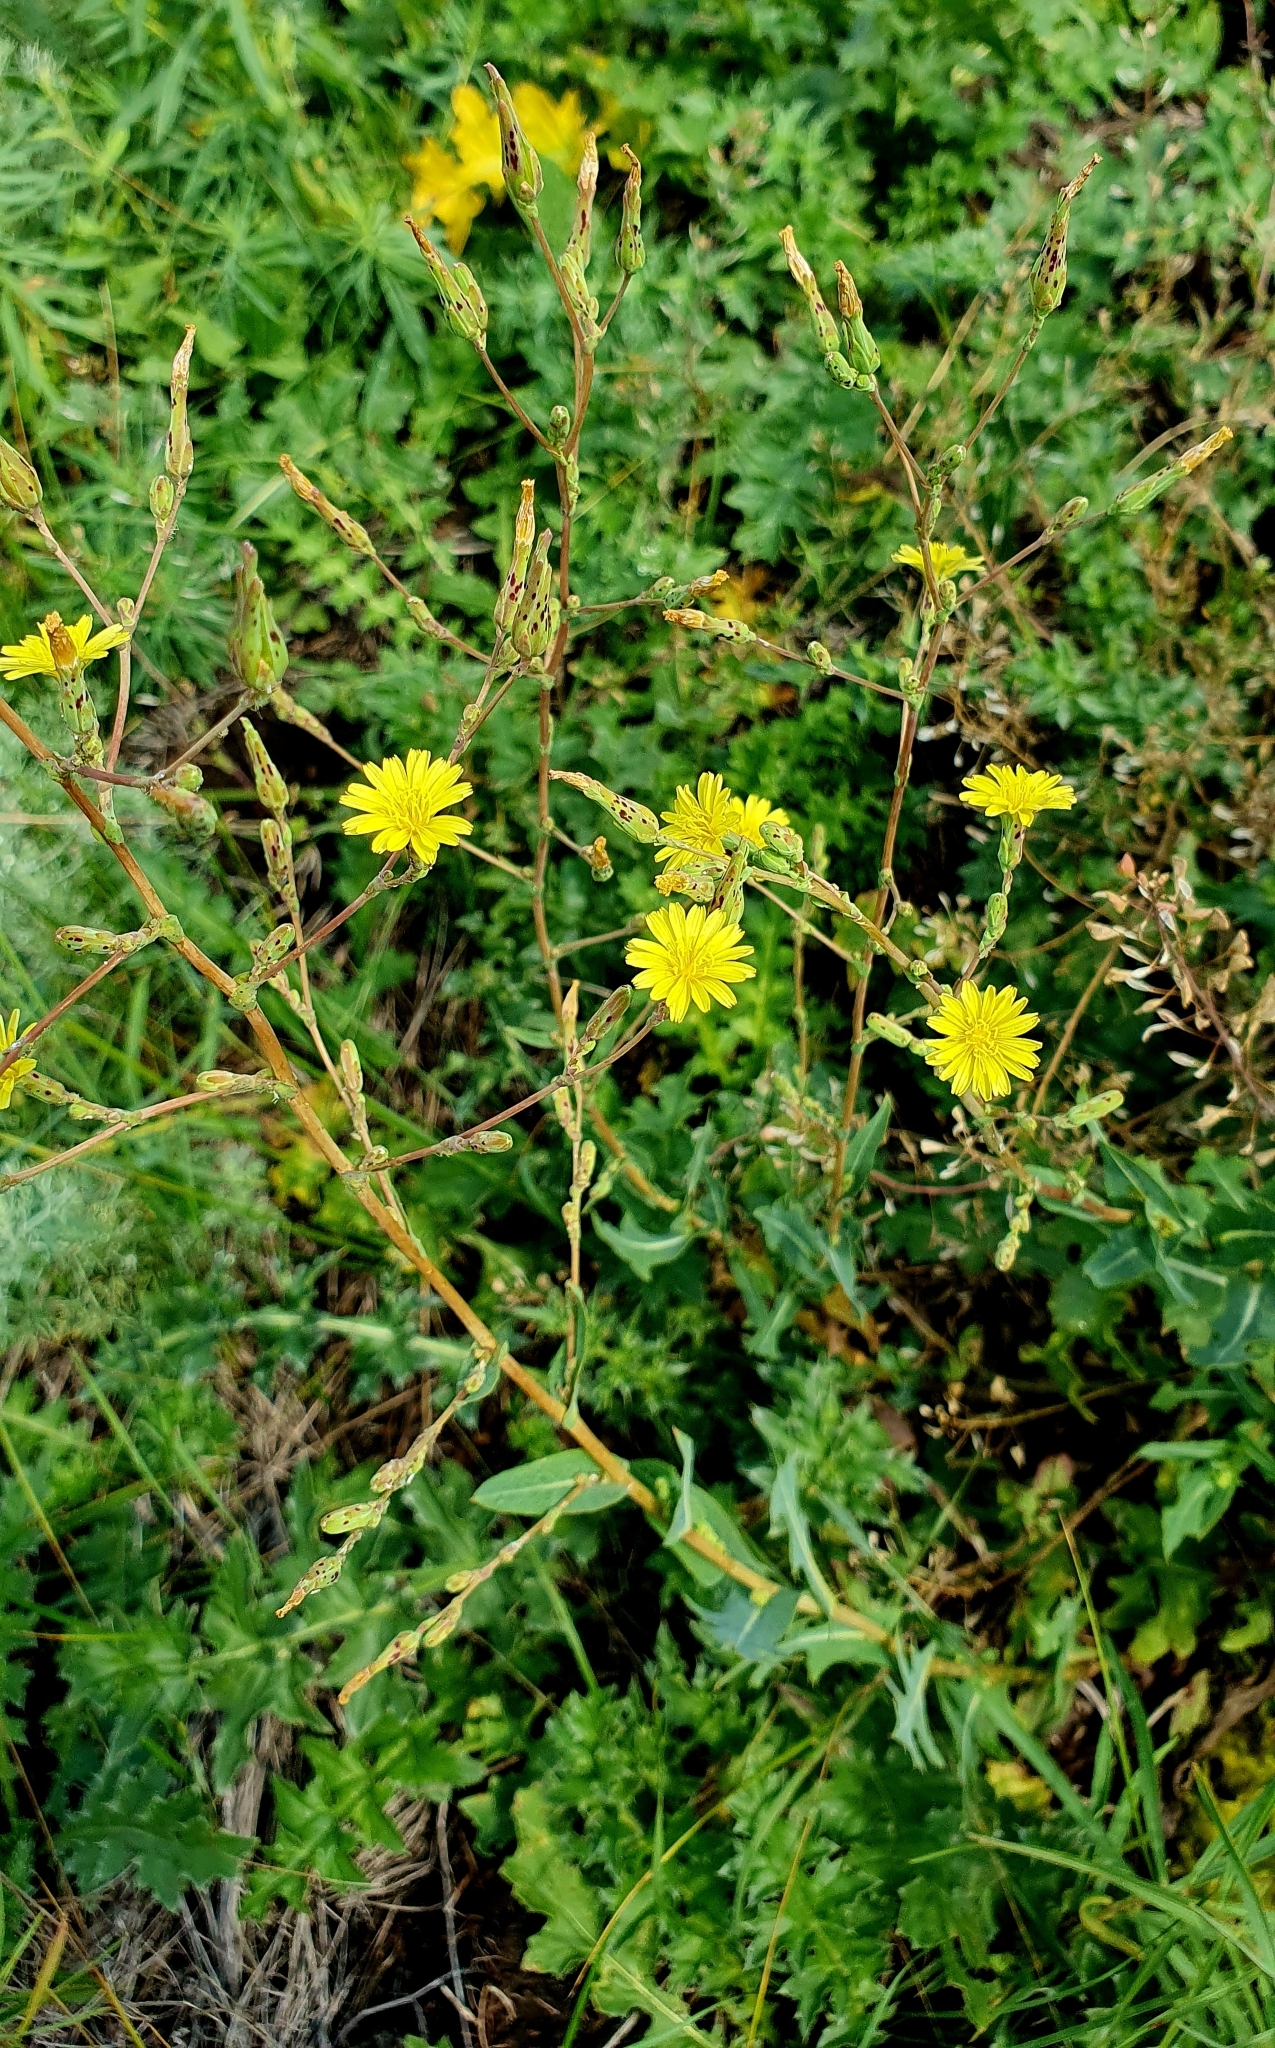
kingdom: Plantae
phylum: Tracheophyta
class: Magnoliopsida
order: Asterales
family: Asteraceae
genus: Lactuca
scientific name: Lactuca serriola
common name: Prickly lettuce
